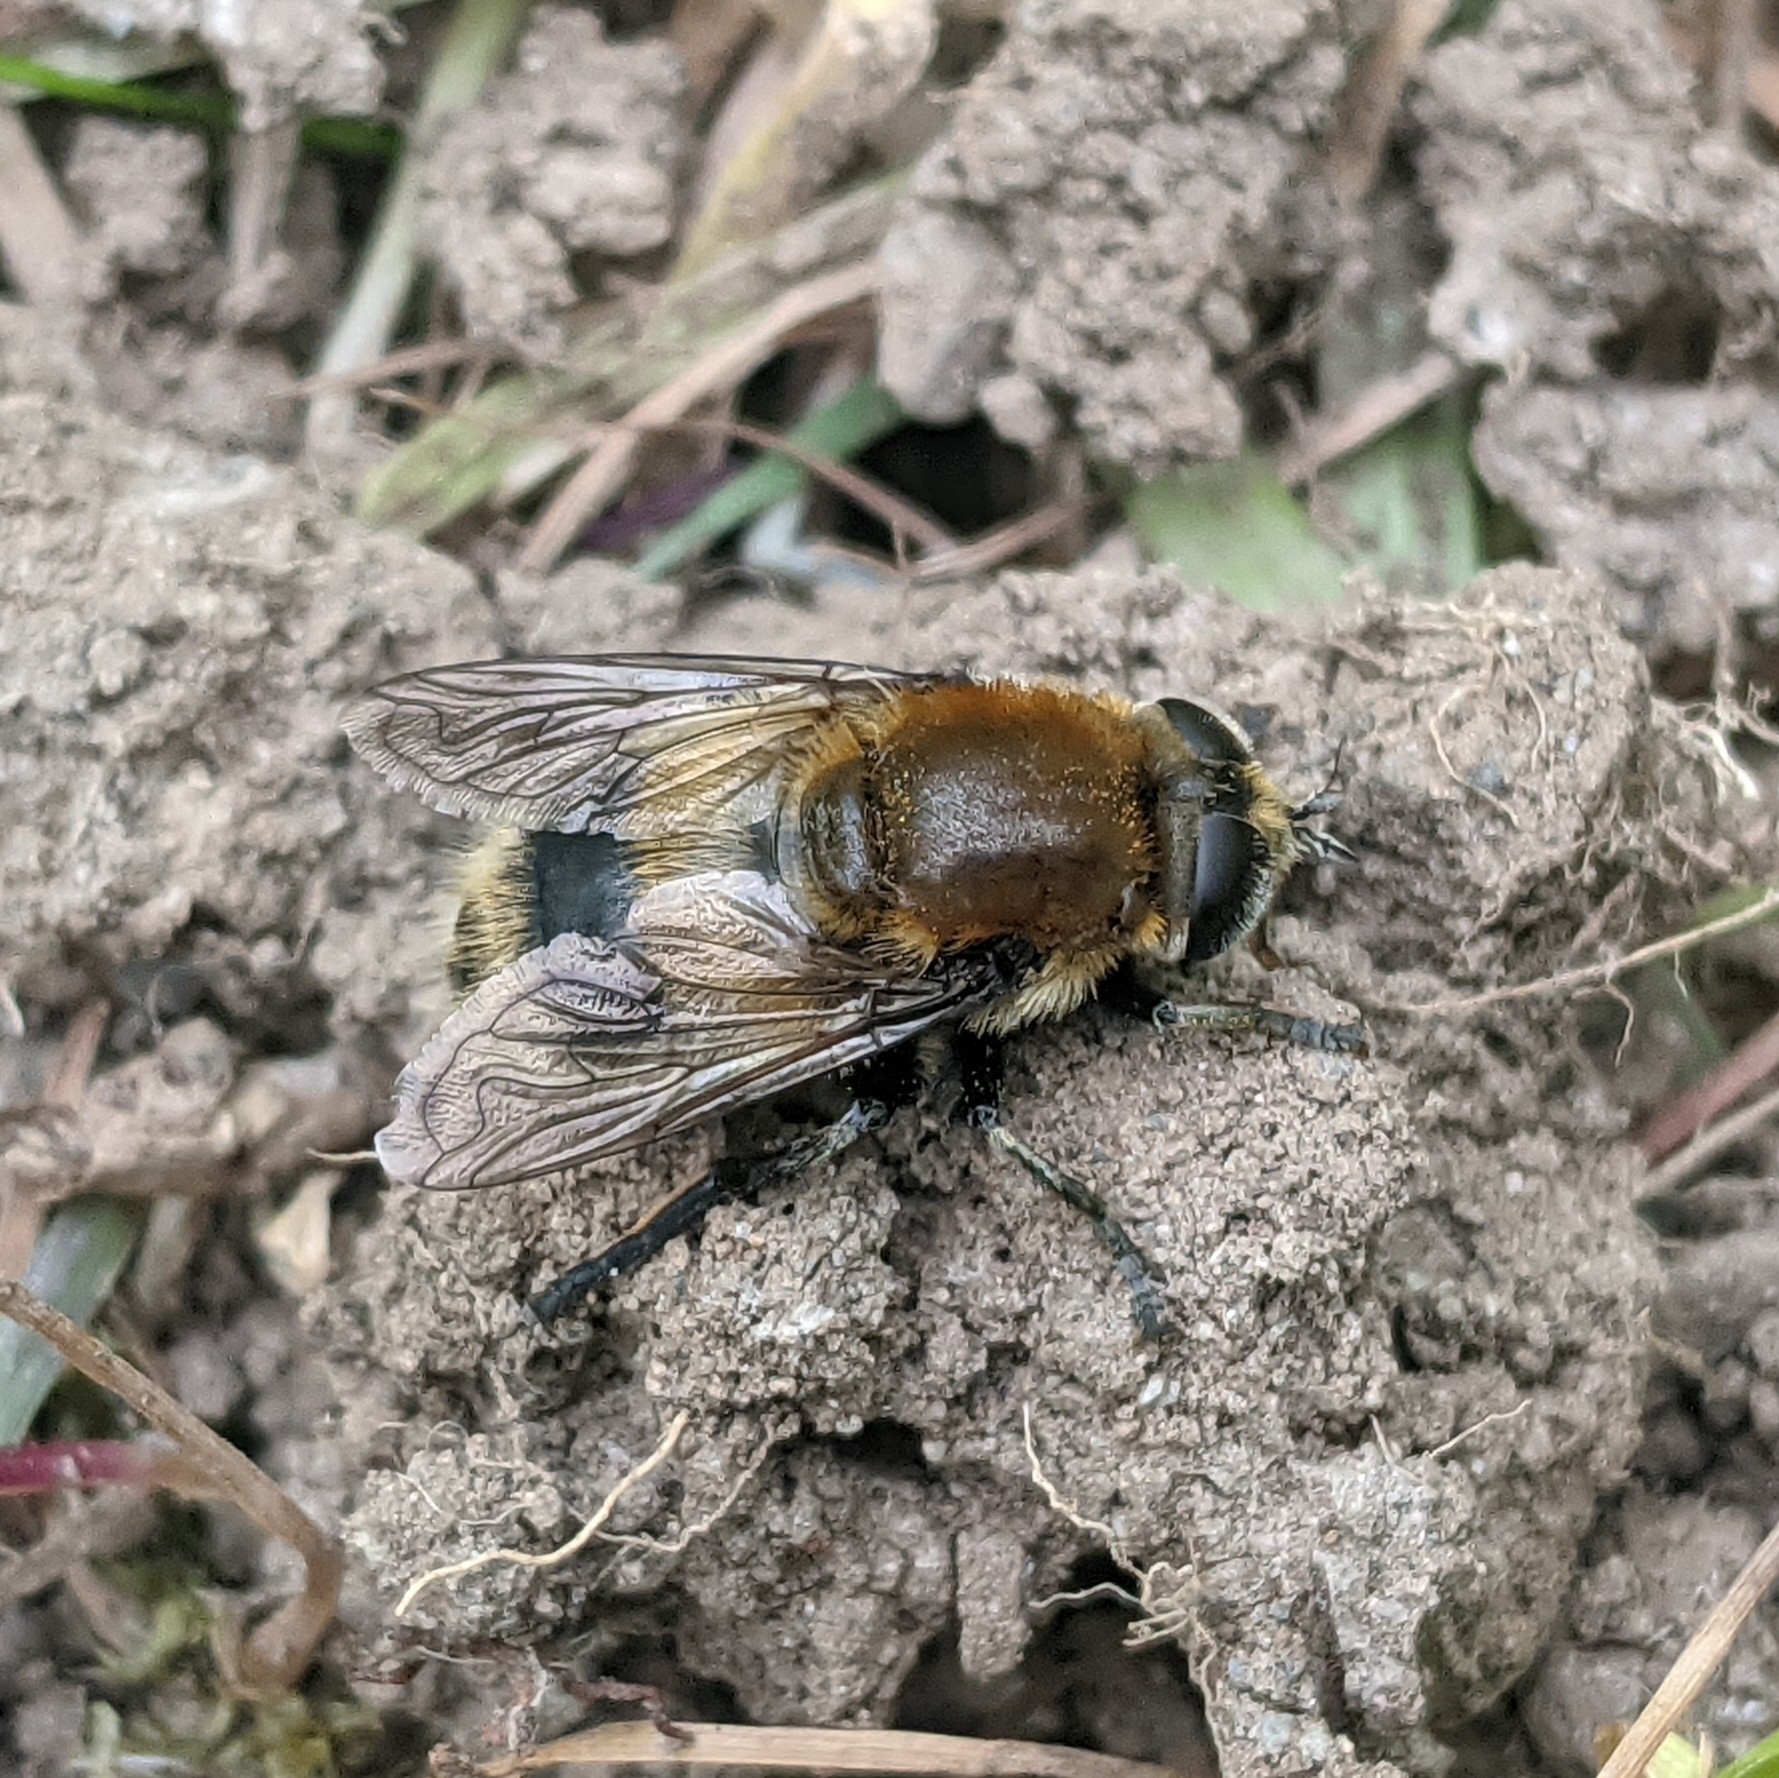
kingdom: Animalia
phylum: Arthropoda
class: Insecta
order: Diptera
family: Syrphidae
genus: Merodon
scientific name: Merodon equestris
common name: Greater bulb-fly
